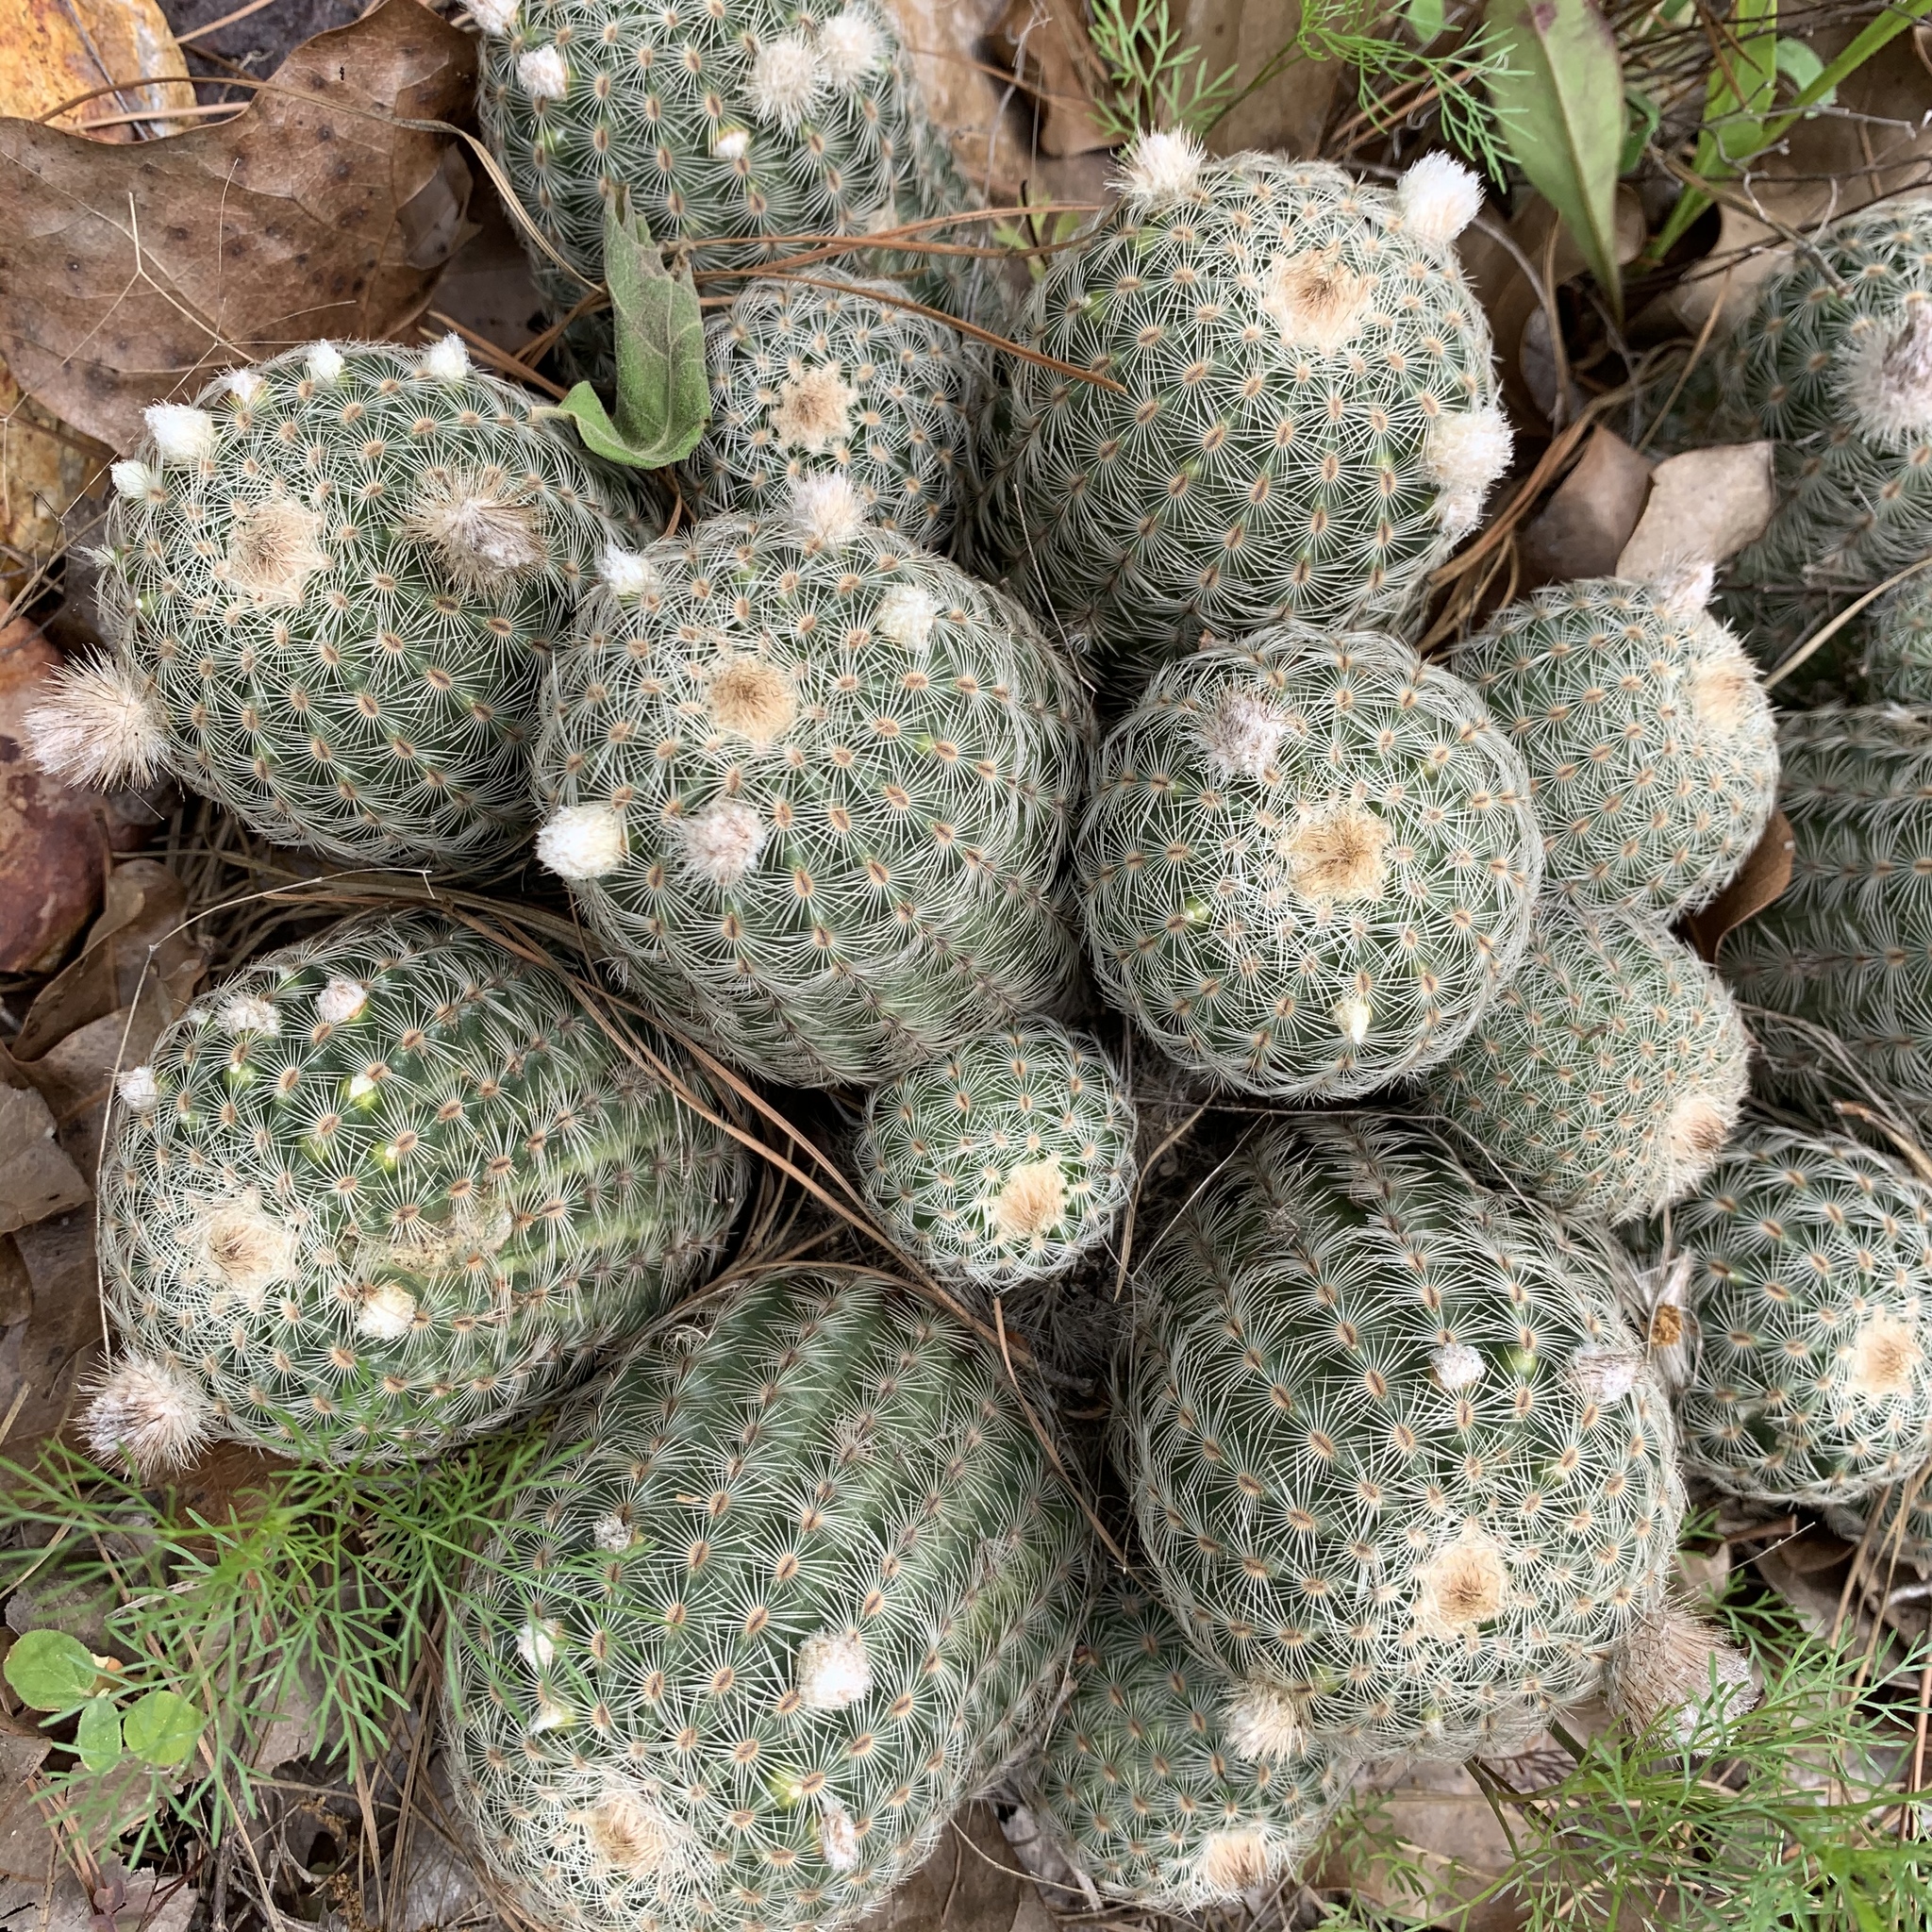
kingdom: Plantae
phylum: Tracheophyta
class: Magnoliopsida
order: Caryophyllales
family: Cactaceae
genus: Echinocereus
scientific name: Echinocereus reichenbachii
